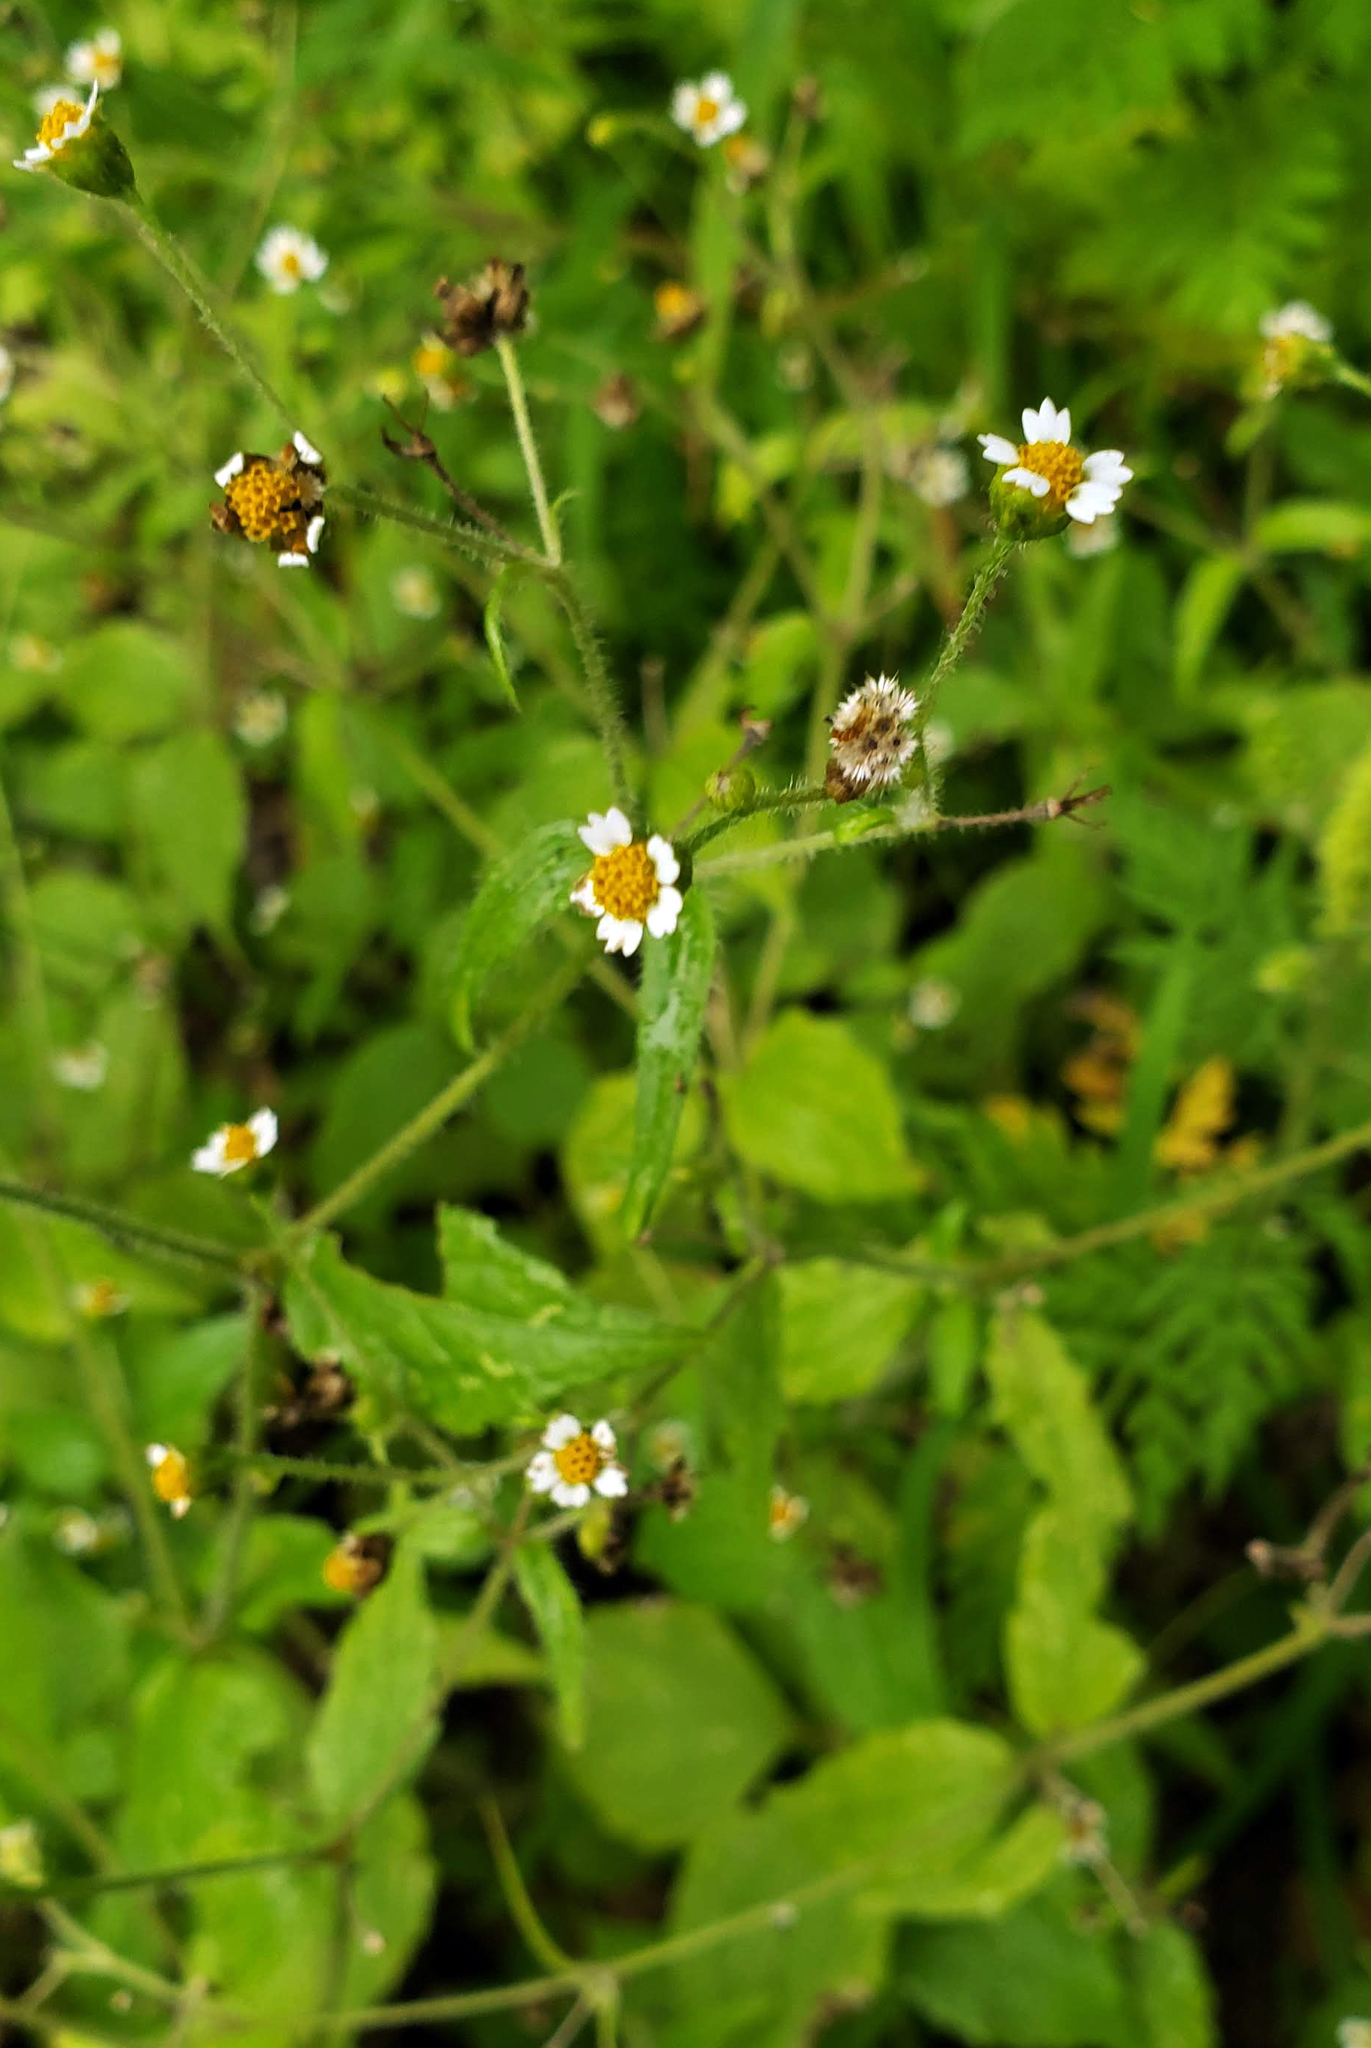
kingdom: Plantae
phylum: Tracheophyta
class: Magnoliopsida
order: Asterales
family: Asteraceae
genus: Galinsoga
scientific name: Galinsoga quadriradiata
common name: Shaggy soldier
